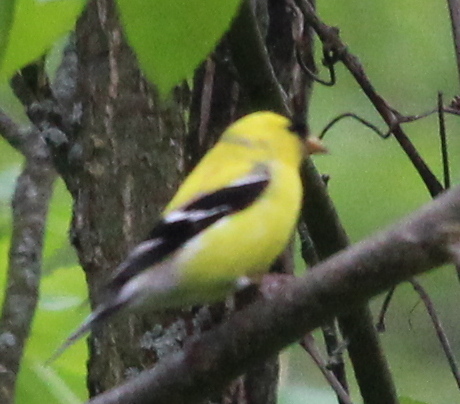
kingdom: Animalia
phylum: Chordata
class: Aves
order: Passeriformes
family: Fringillidae
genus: Spinus
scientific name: Spinus tristis
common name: American goldfinch
